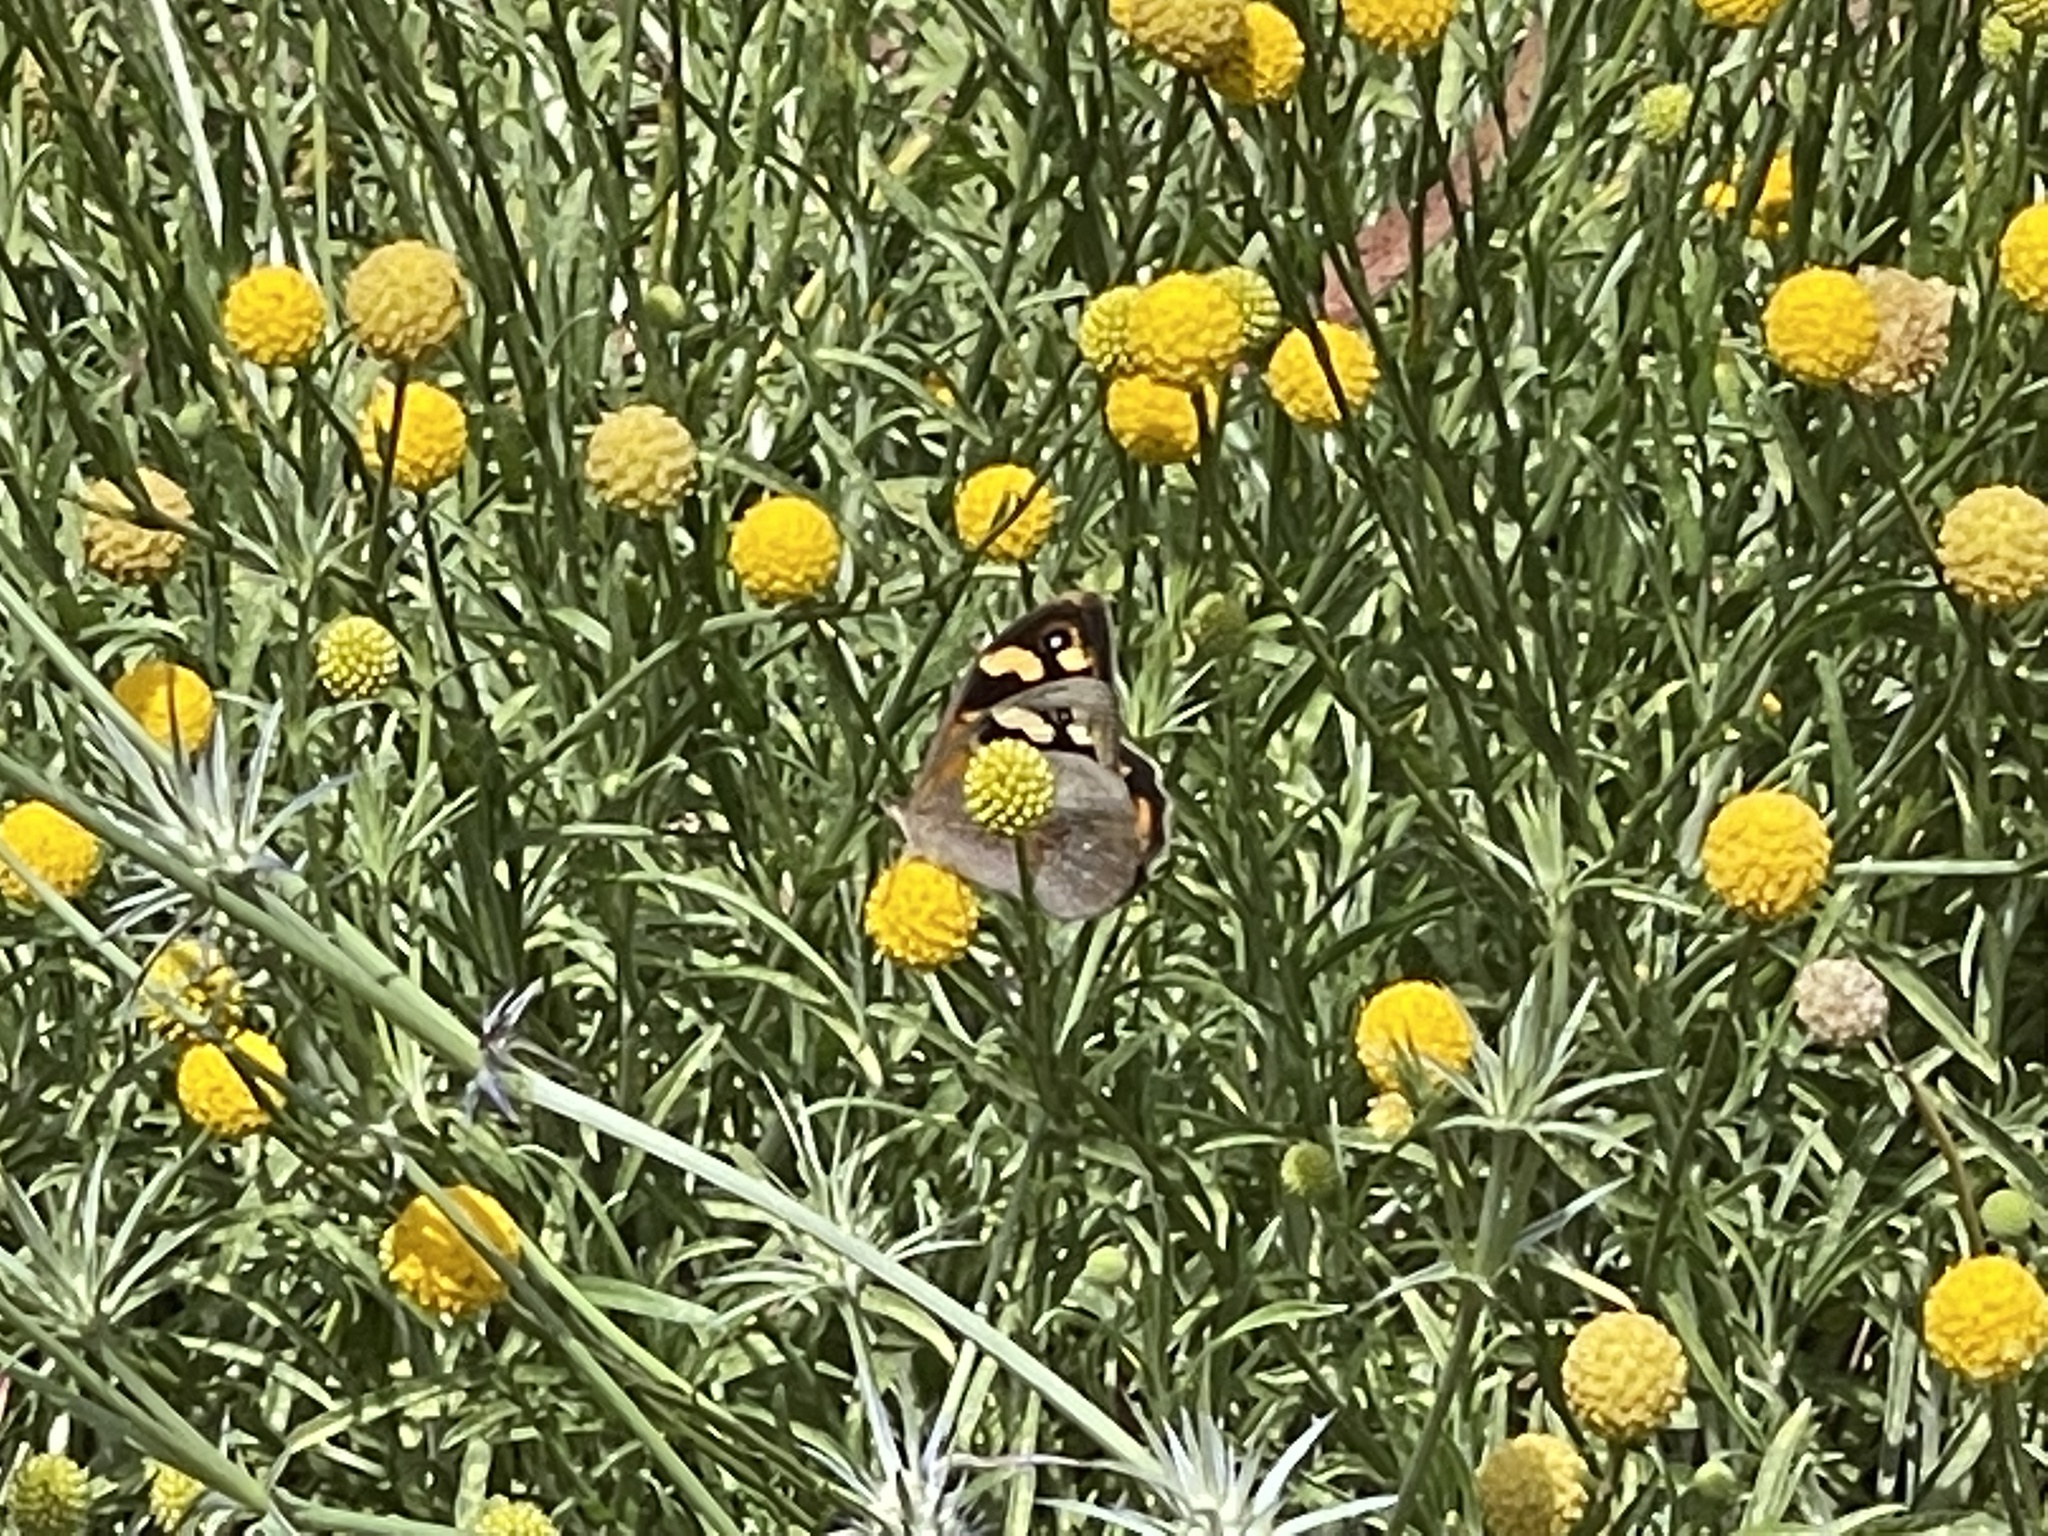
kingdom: Animalia
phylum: Arthropoda
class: Insecta
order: Lepidoptera
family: Nymphalidae
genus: Heteronympha
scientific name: Heteronympha merope
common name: Common brown
